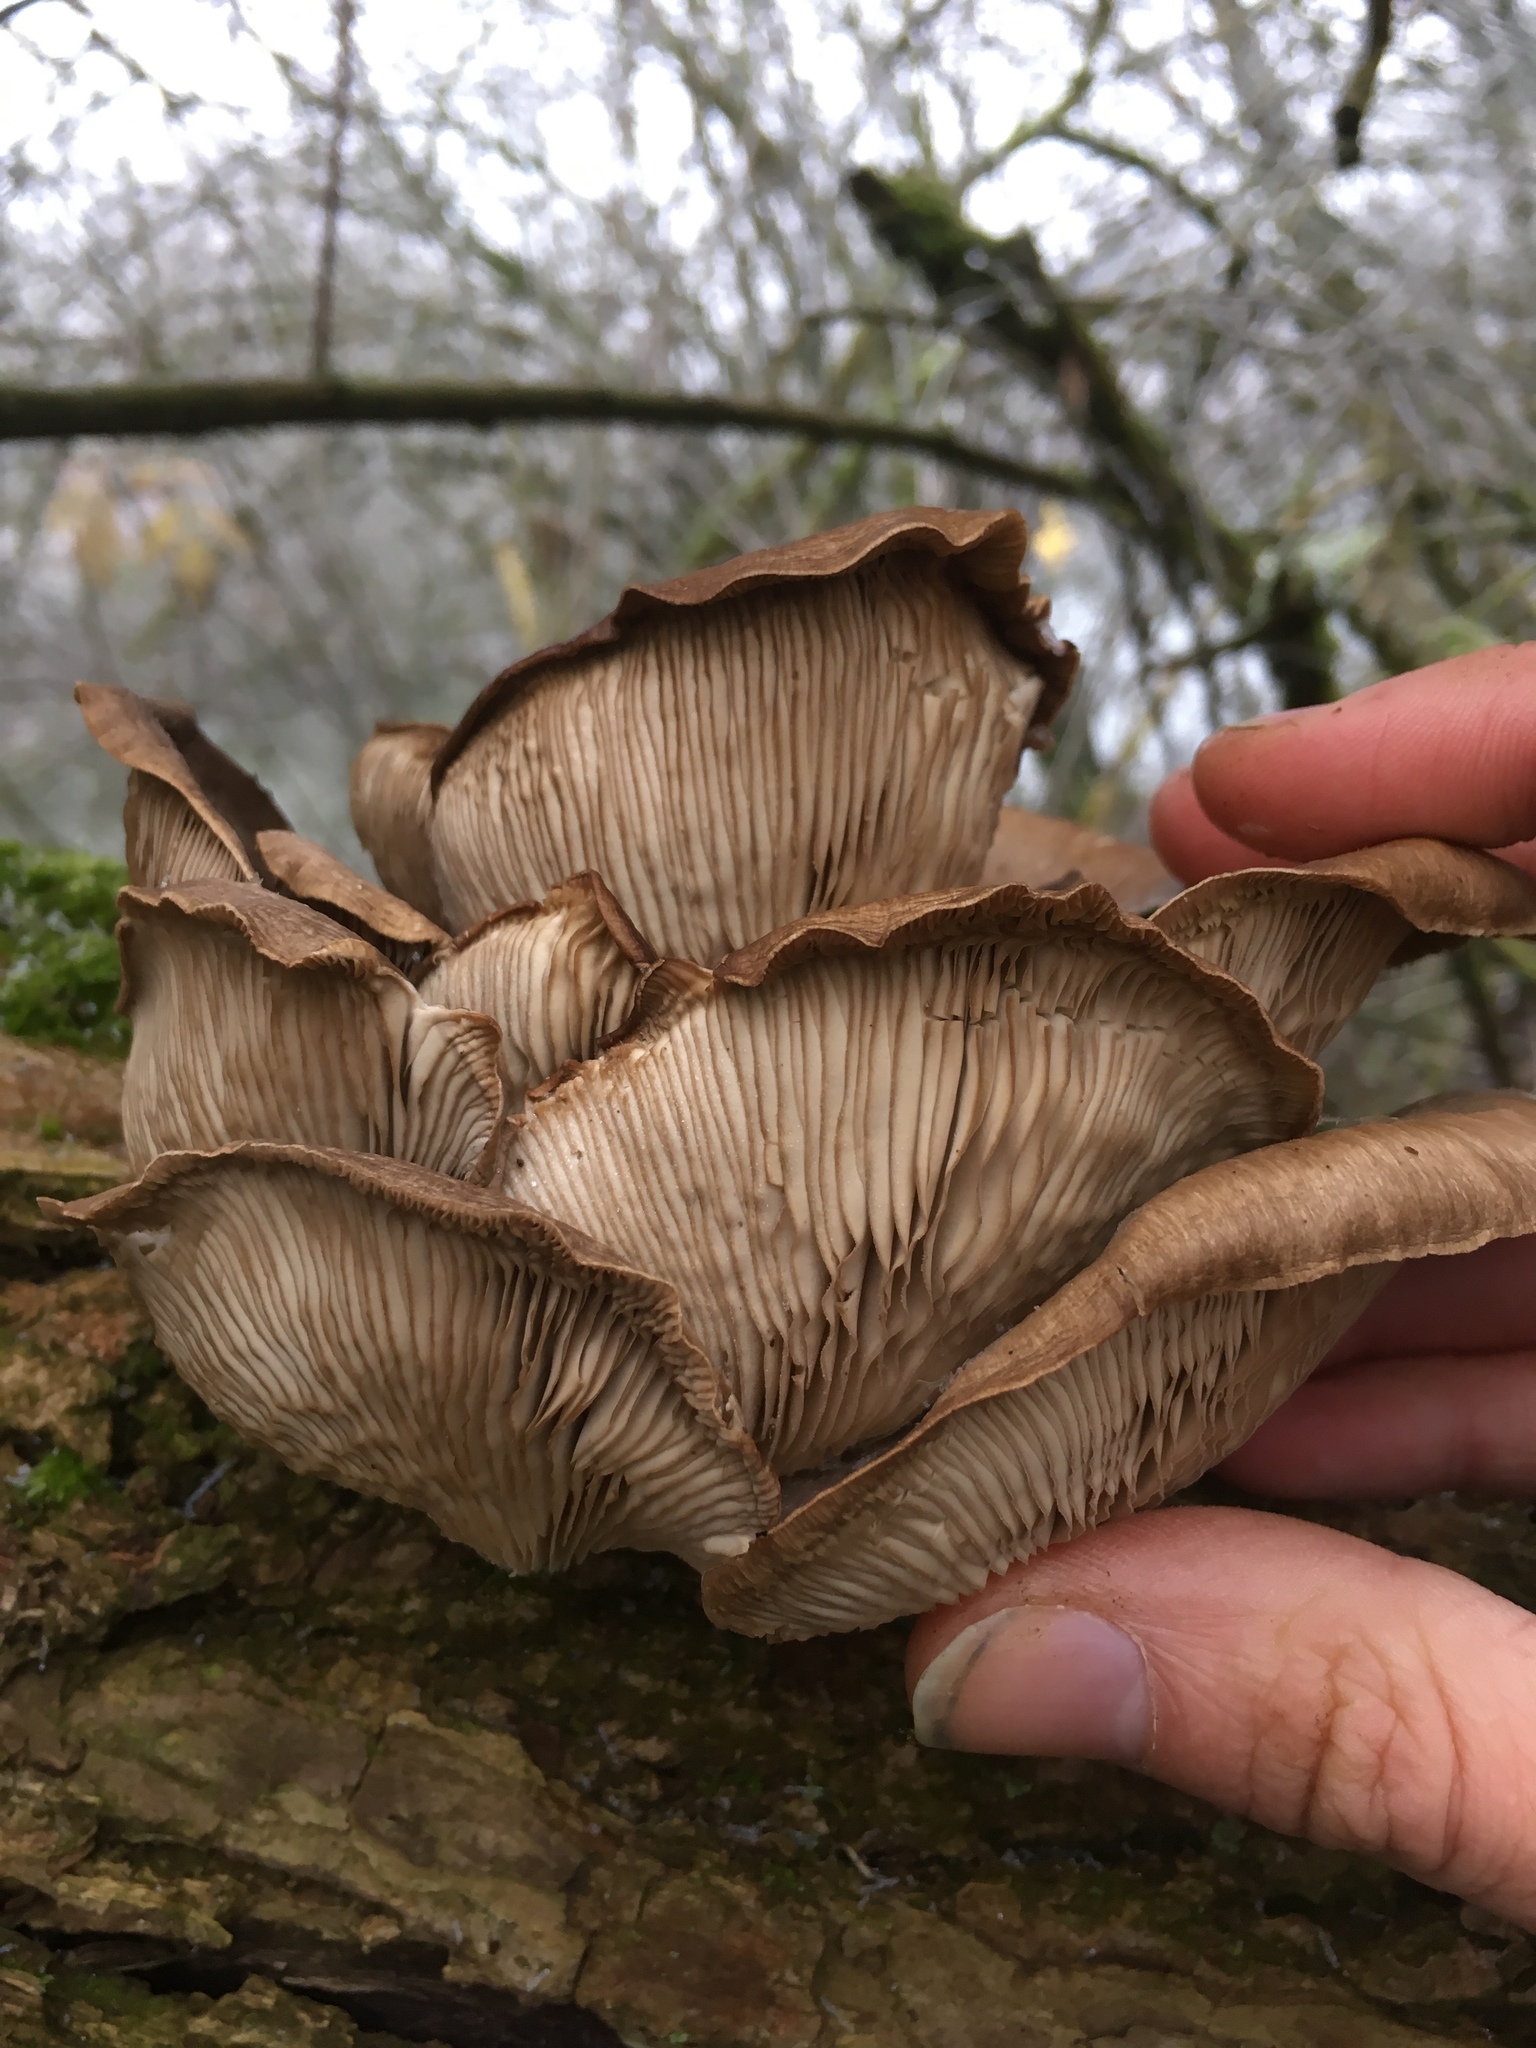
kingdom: Fungi
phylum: Basidiomycota
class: Agaricomycetes
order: Agaricales
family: Pleurotaceae
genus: Pleurotus
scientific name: Pleurotus ostreatus
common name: Oyster mushroom
